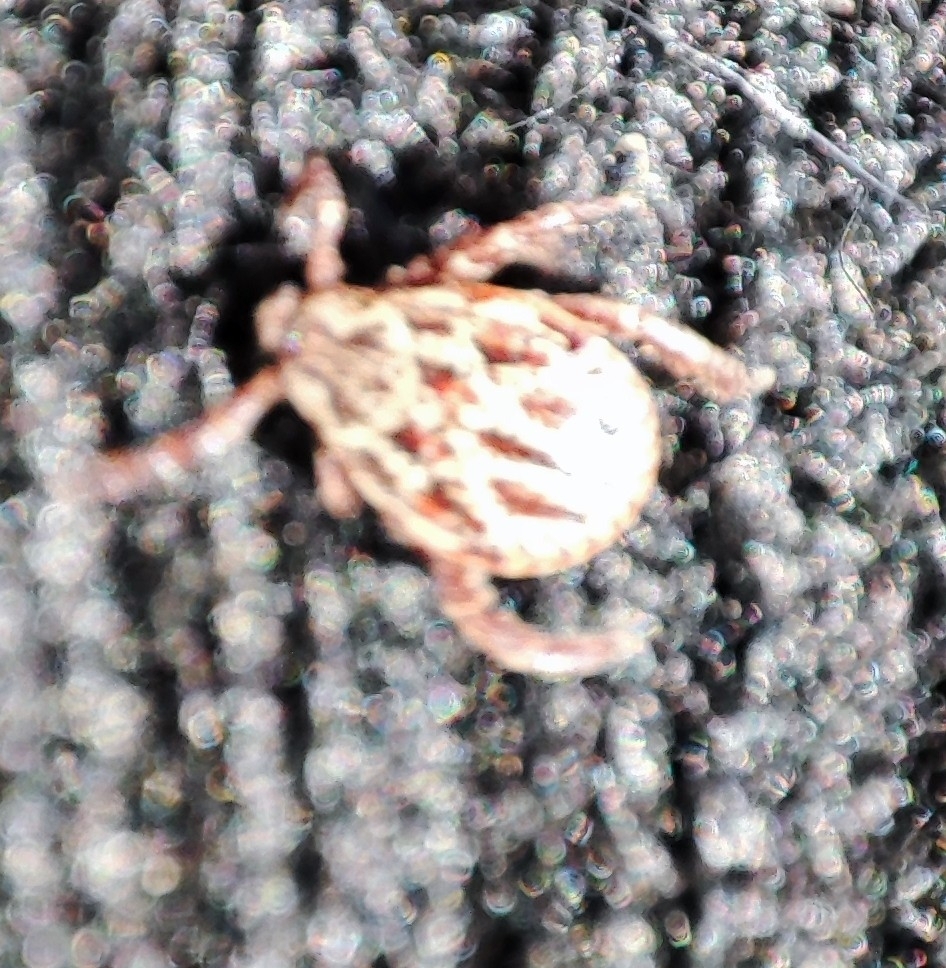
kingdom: Animalia
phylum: Arthropoda
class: Arachnida
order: Ixodida
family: Ixodidae
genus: Dermacentor
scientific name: Dermacentor reticulatus
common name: Ornate cow tick
